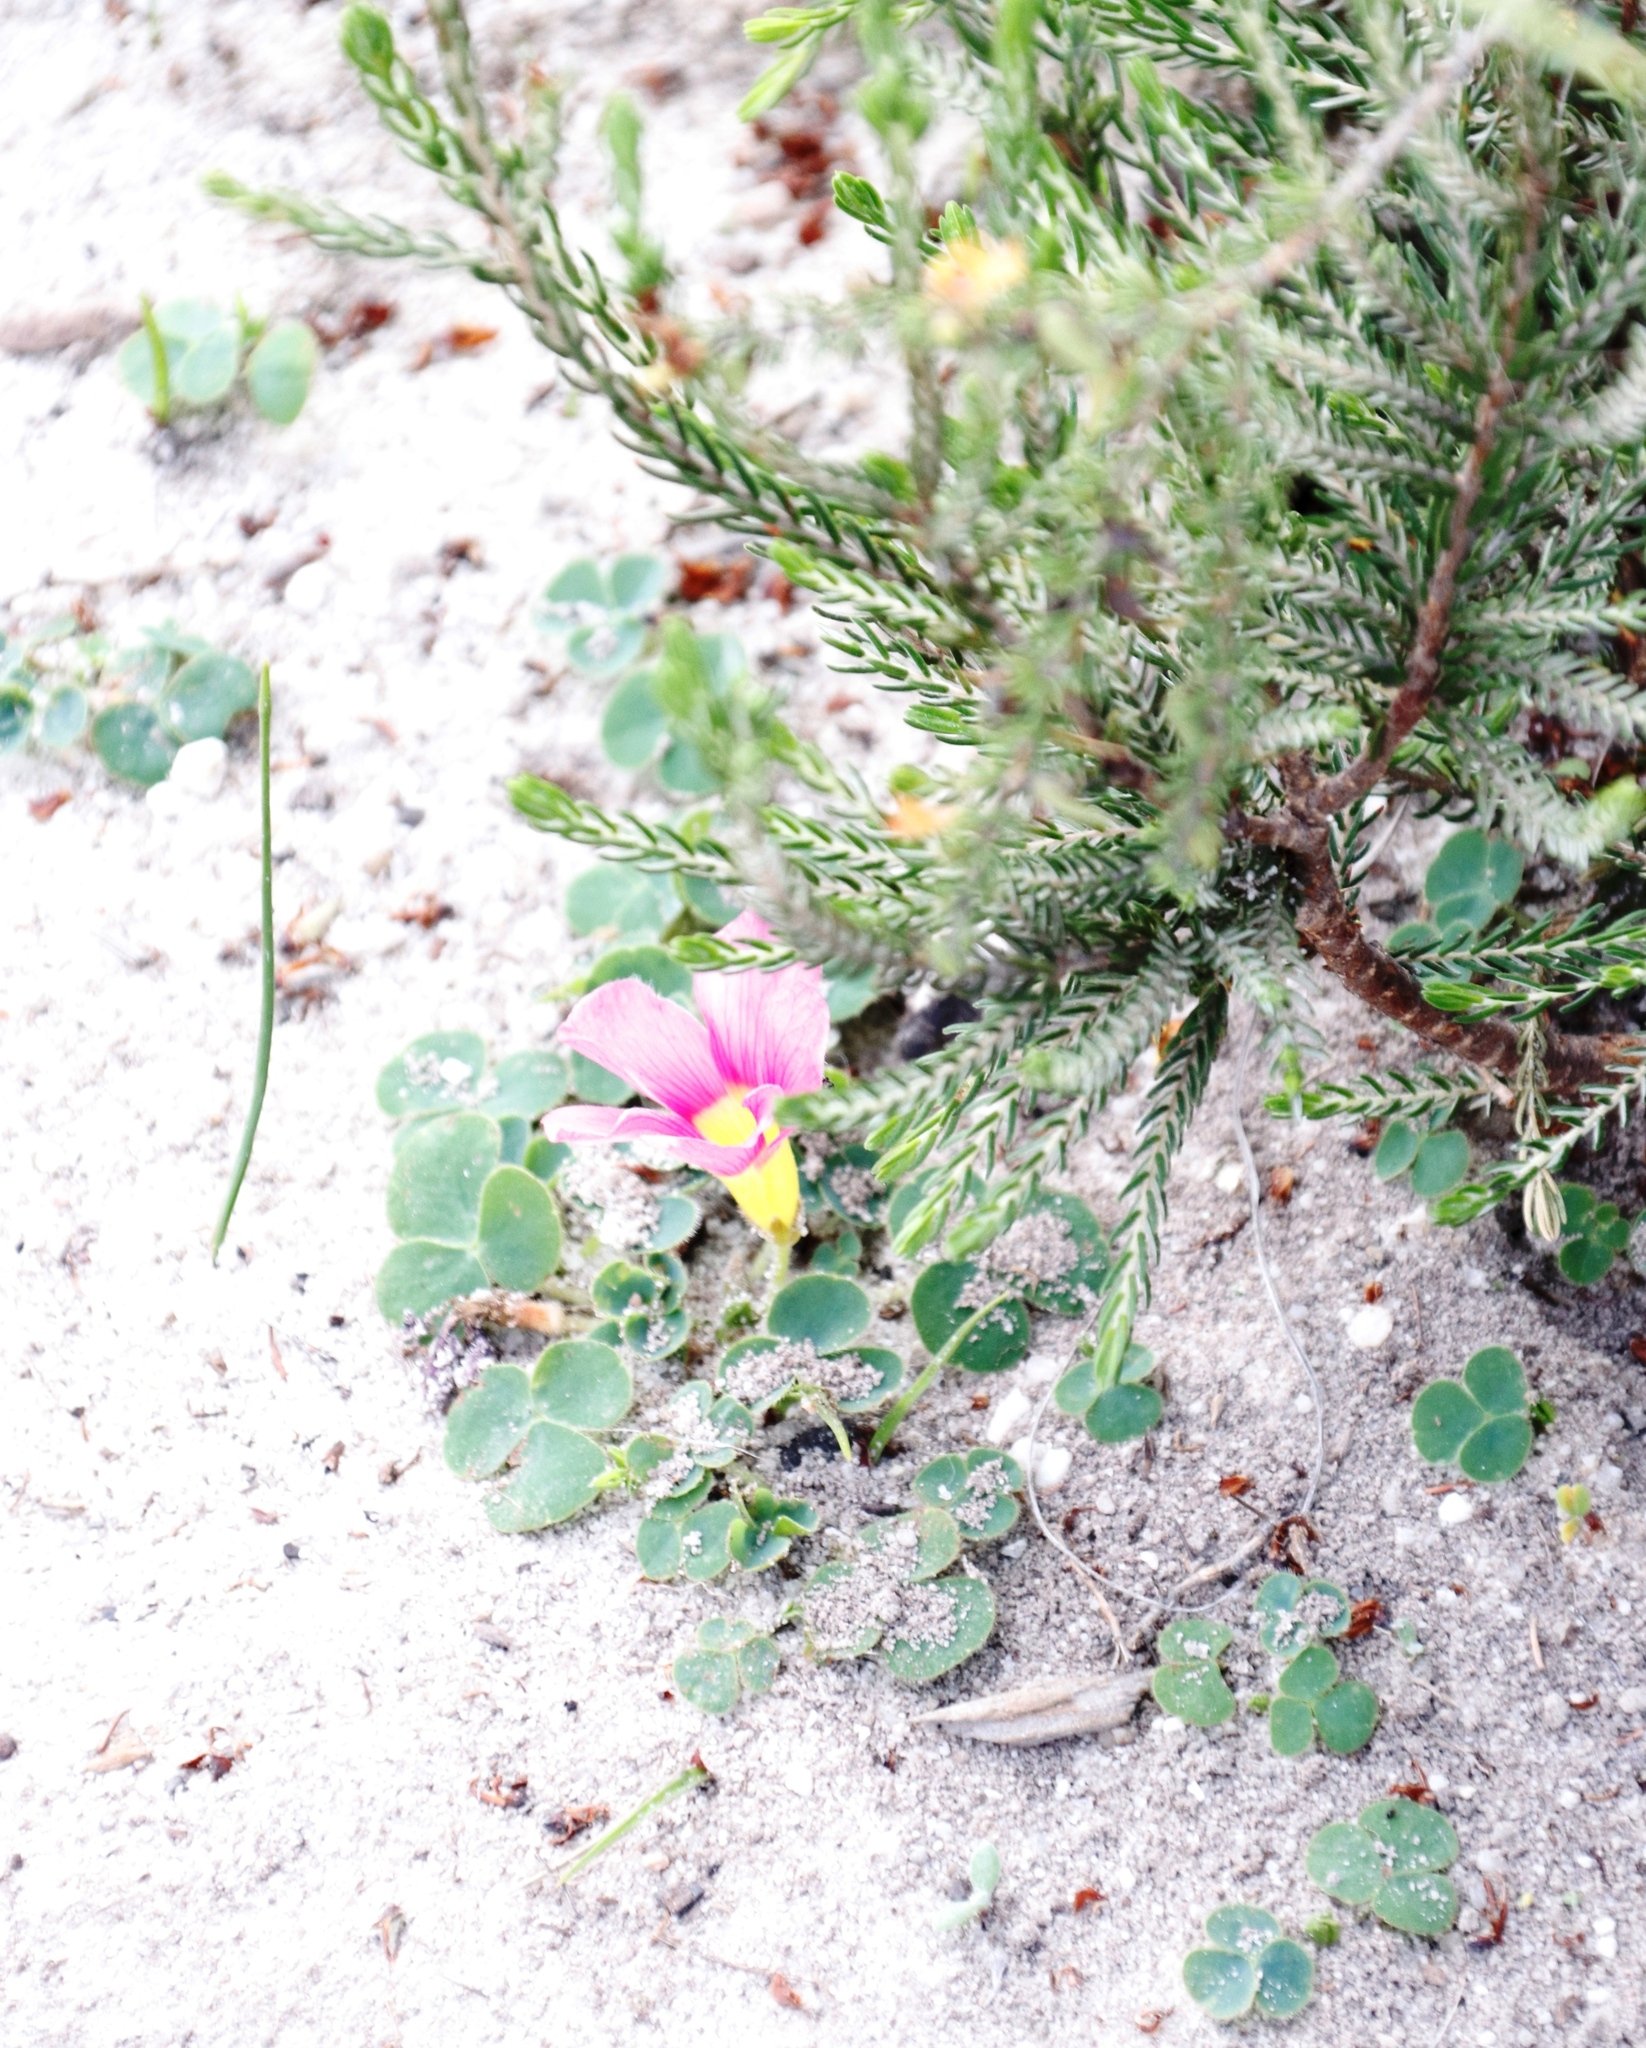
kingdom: Plantae
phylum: Tracheophyta
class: Magnoliopsida
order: Oxalidales
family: Oxalidaceae
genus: Oxalis
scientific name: Oxalis purpurea
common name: Purple woodsorrel
